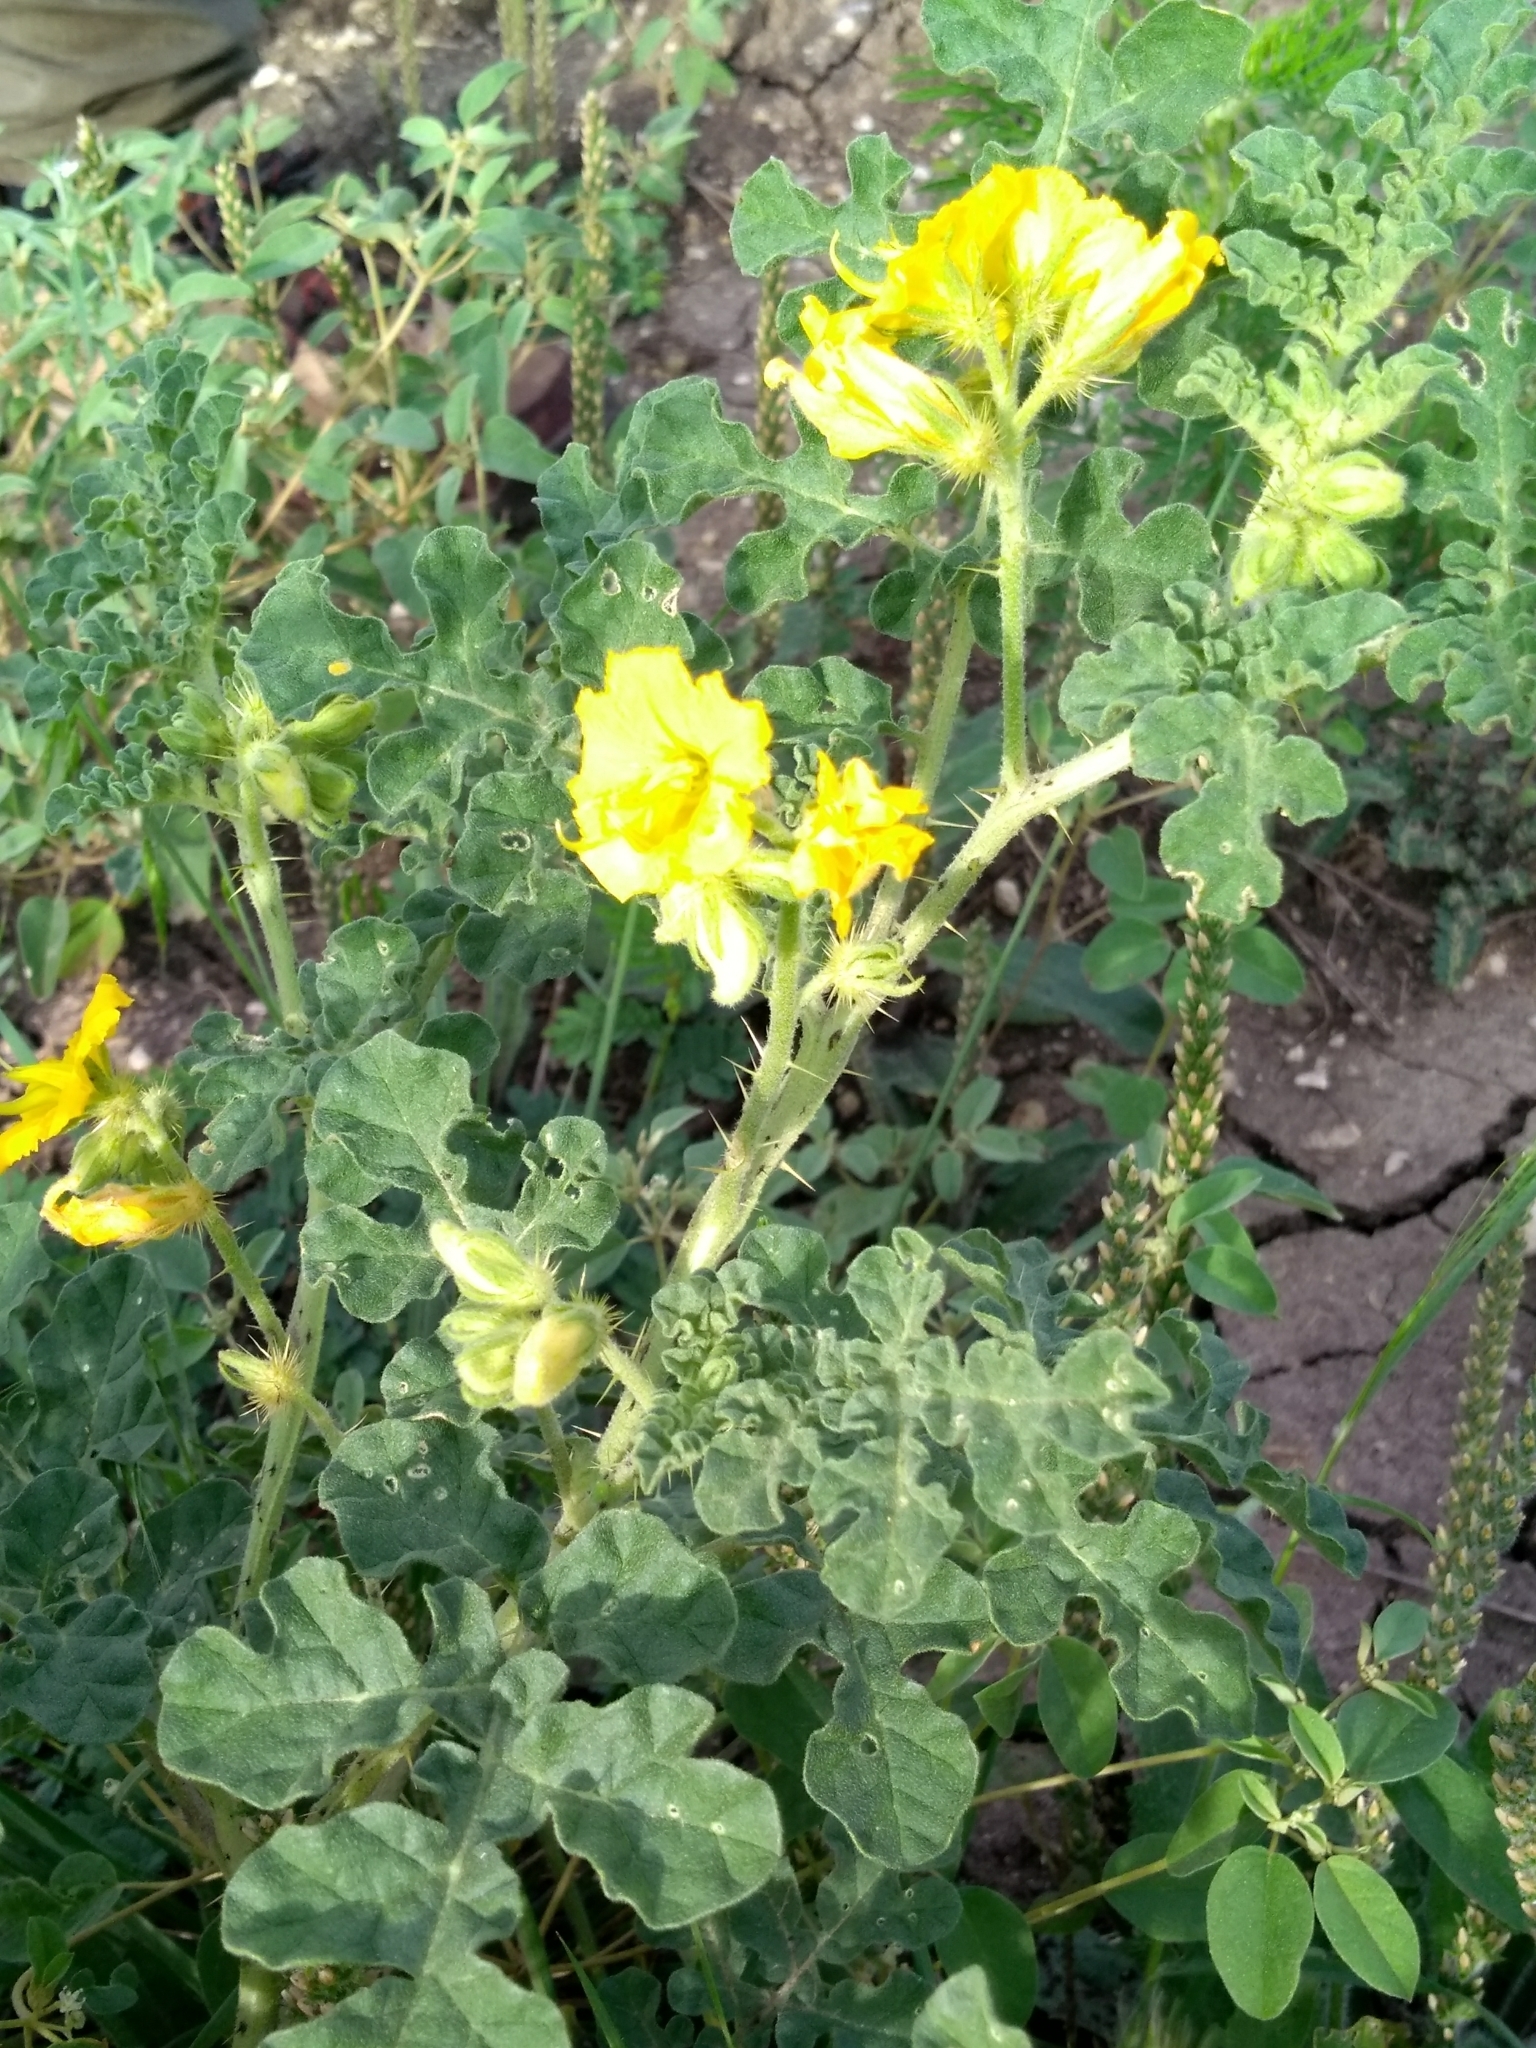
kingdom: Plantae
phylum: Tracheophyta
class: Magnoliopsida
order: Solanales
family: Solanaceae
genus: Solanum
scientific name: Solanum angustifolium
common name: Buffalobur nightshade
